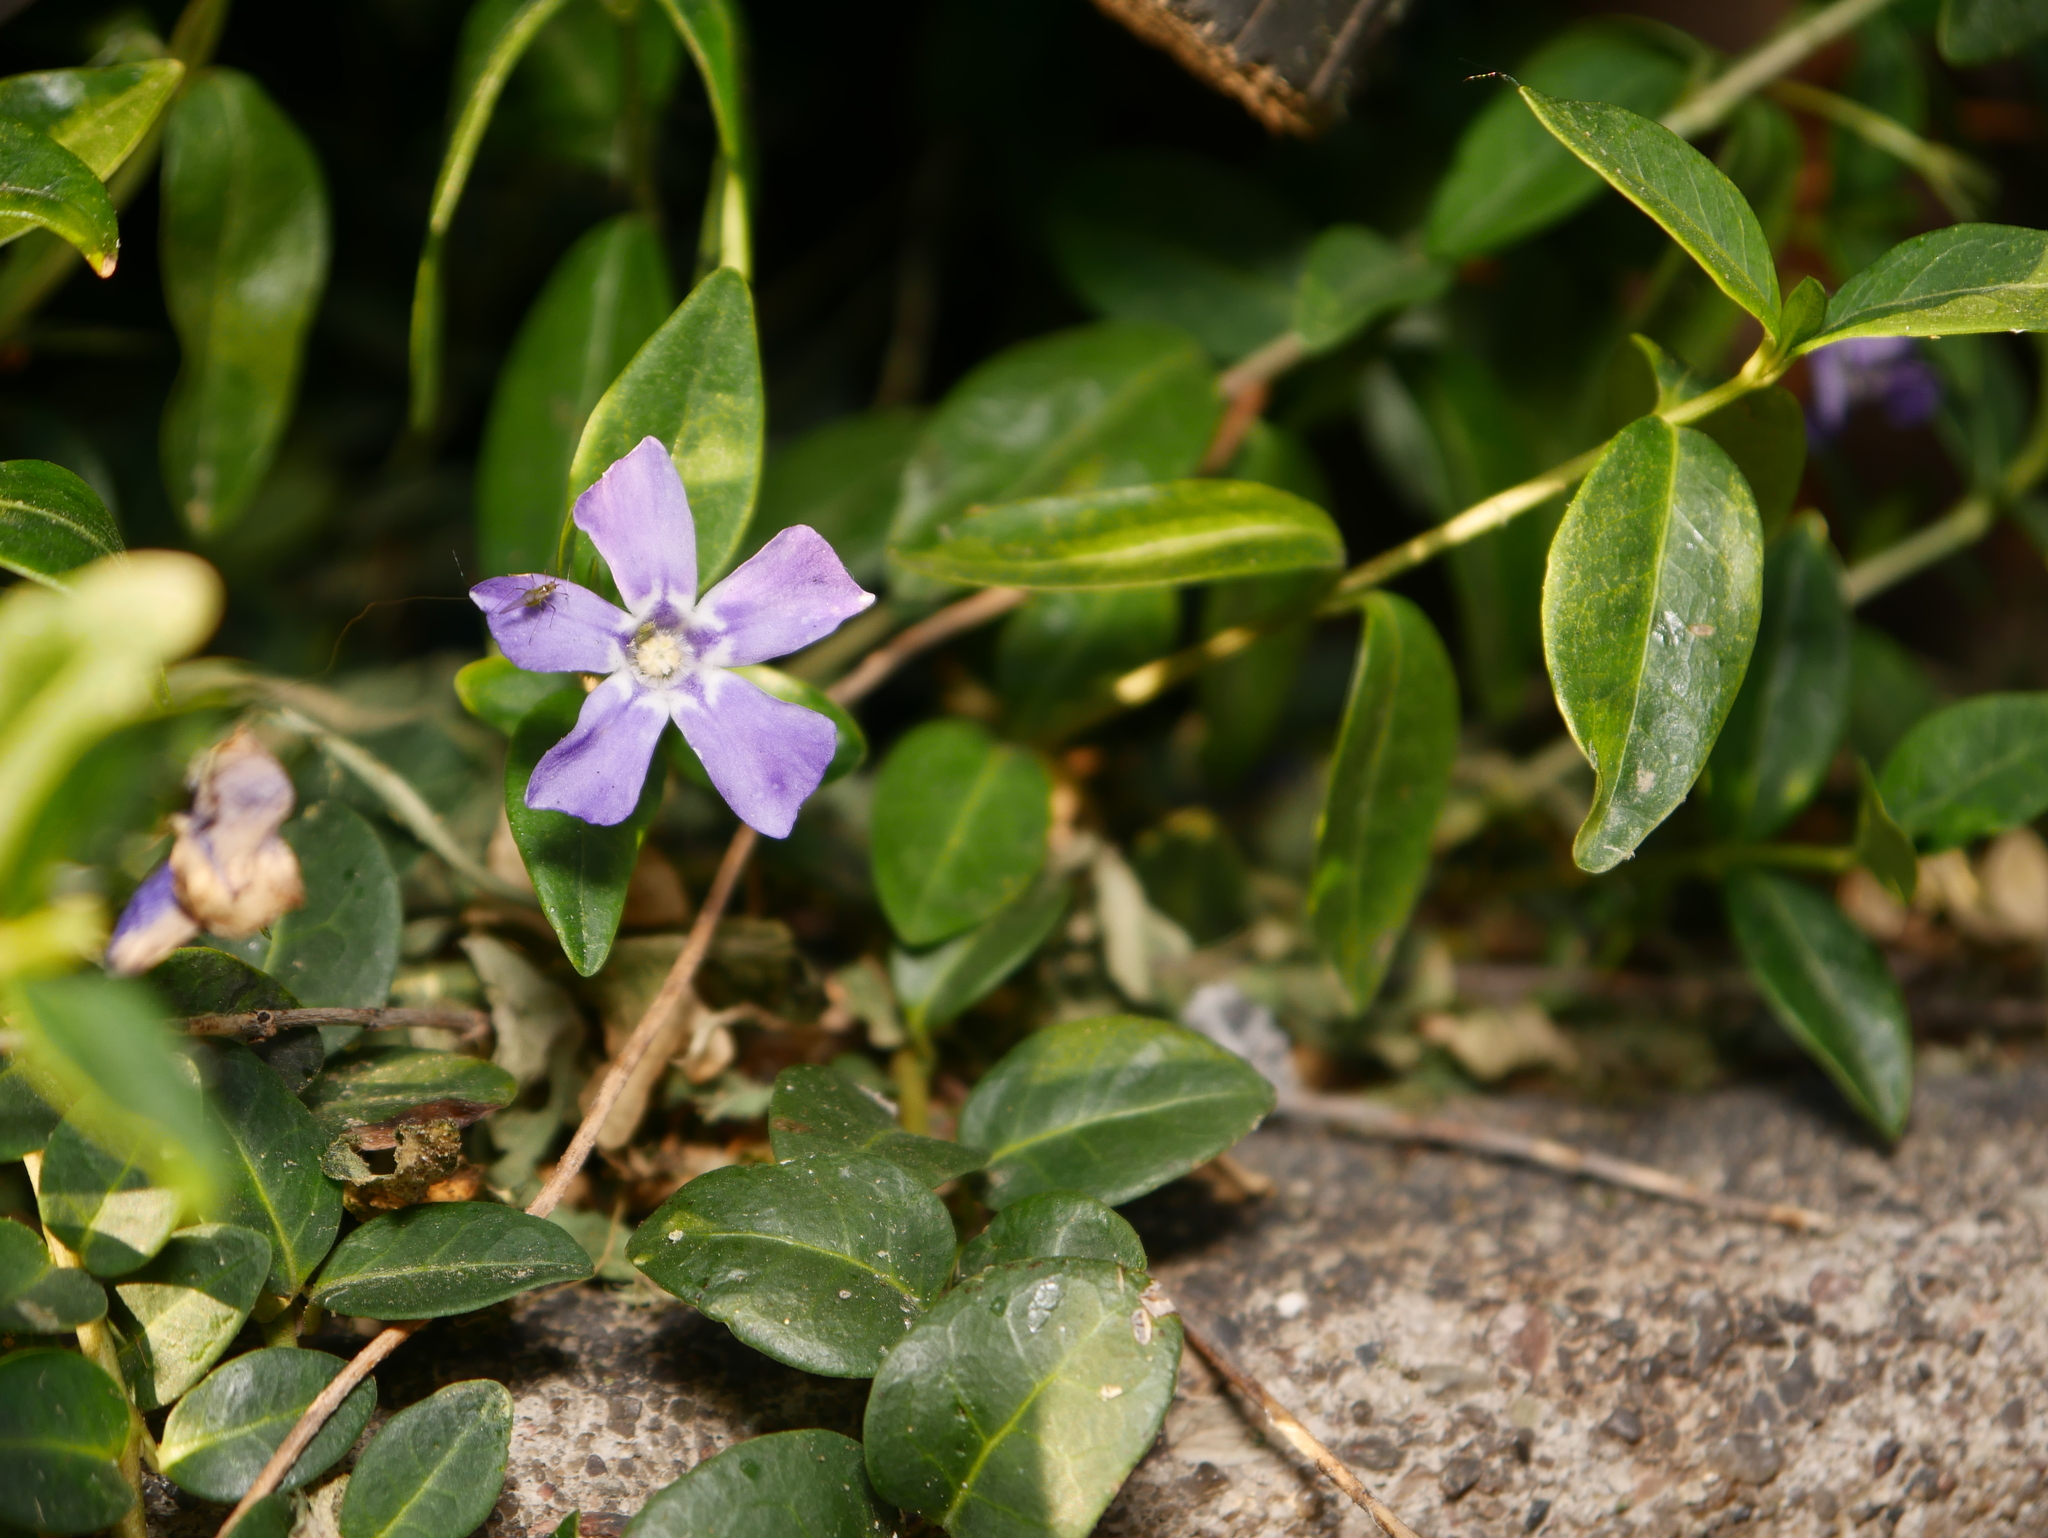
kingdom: Plantae
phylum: Tracheophyta
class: Magnoliopsida
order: Gentianales
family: Apocynaceae
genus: Vinca
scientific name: Vinca minor
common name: Lesser periwinkle
